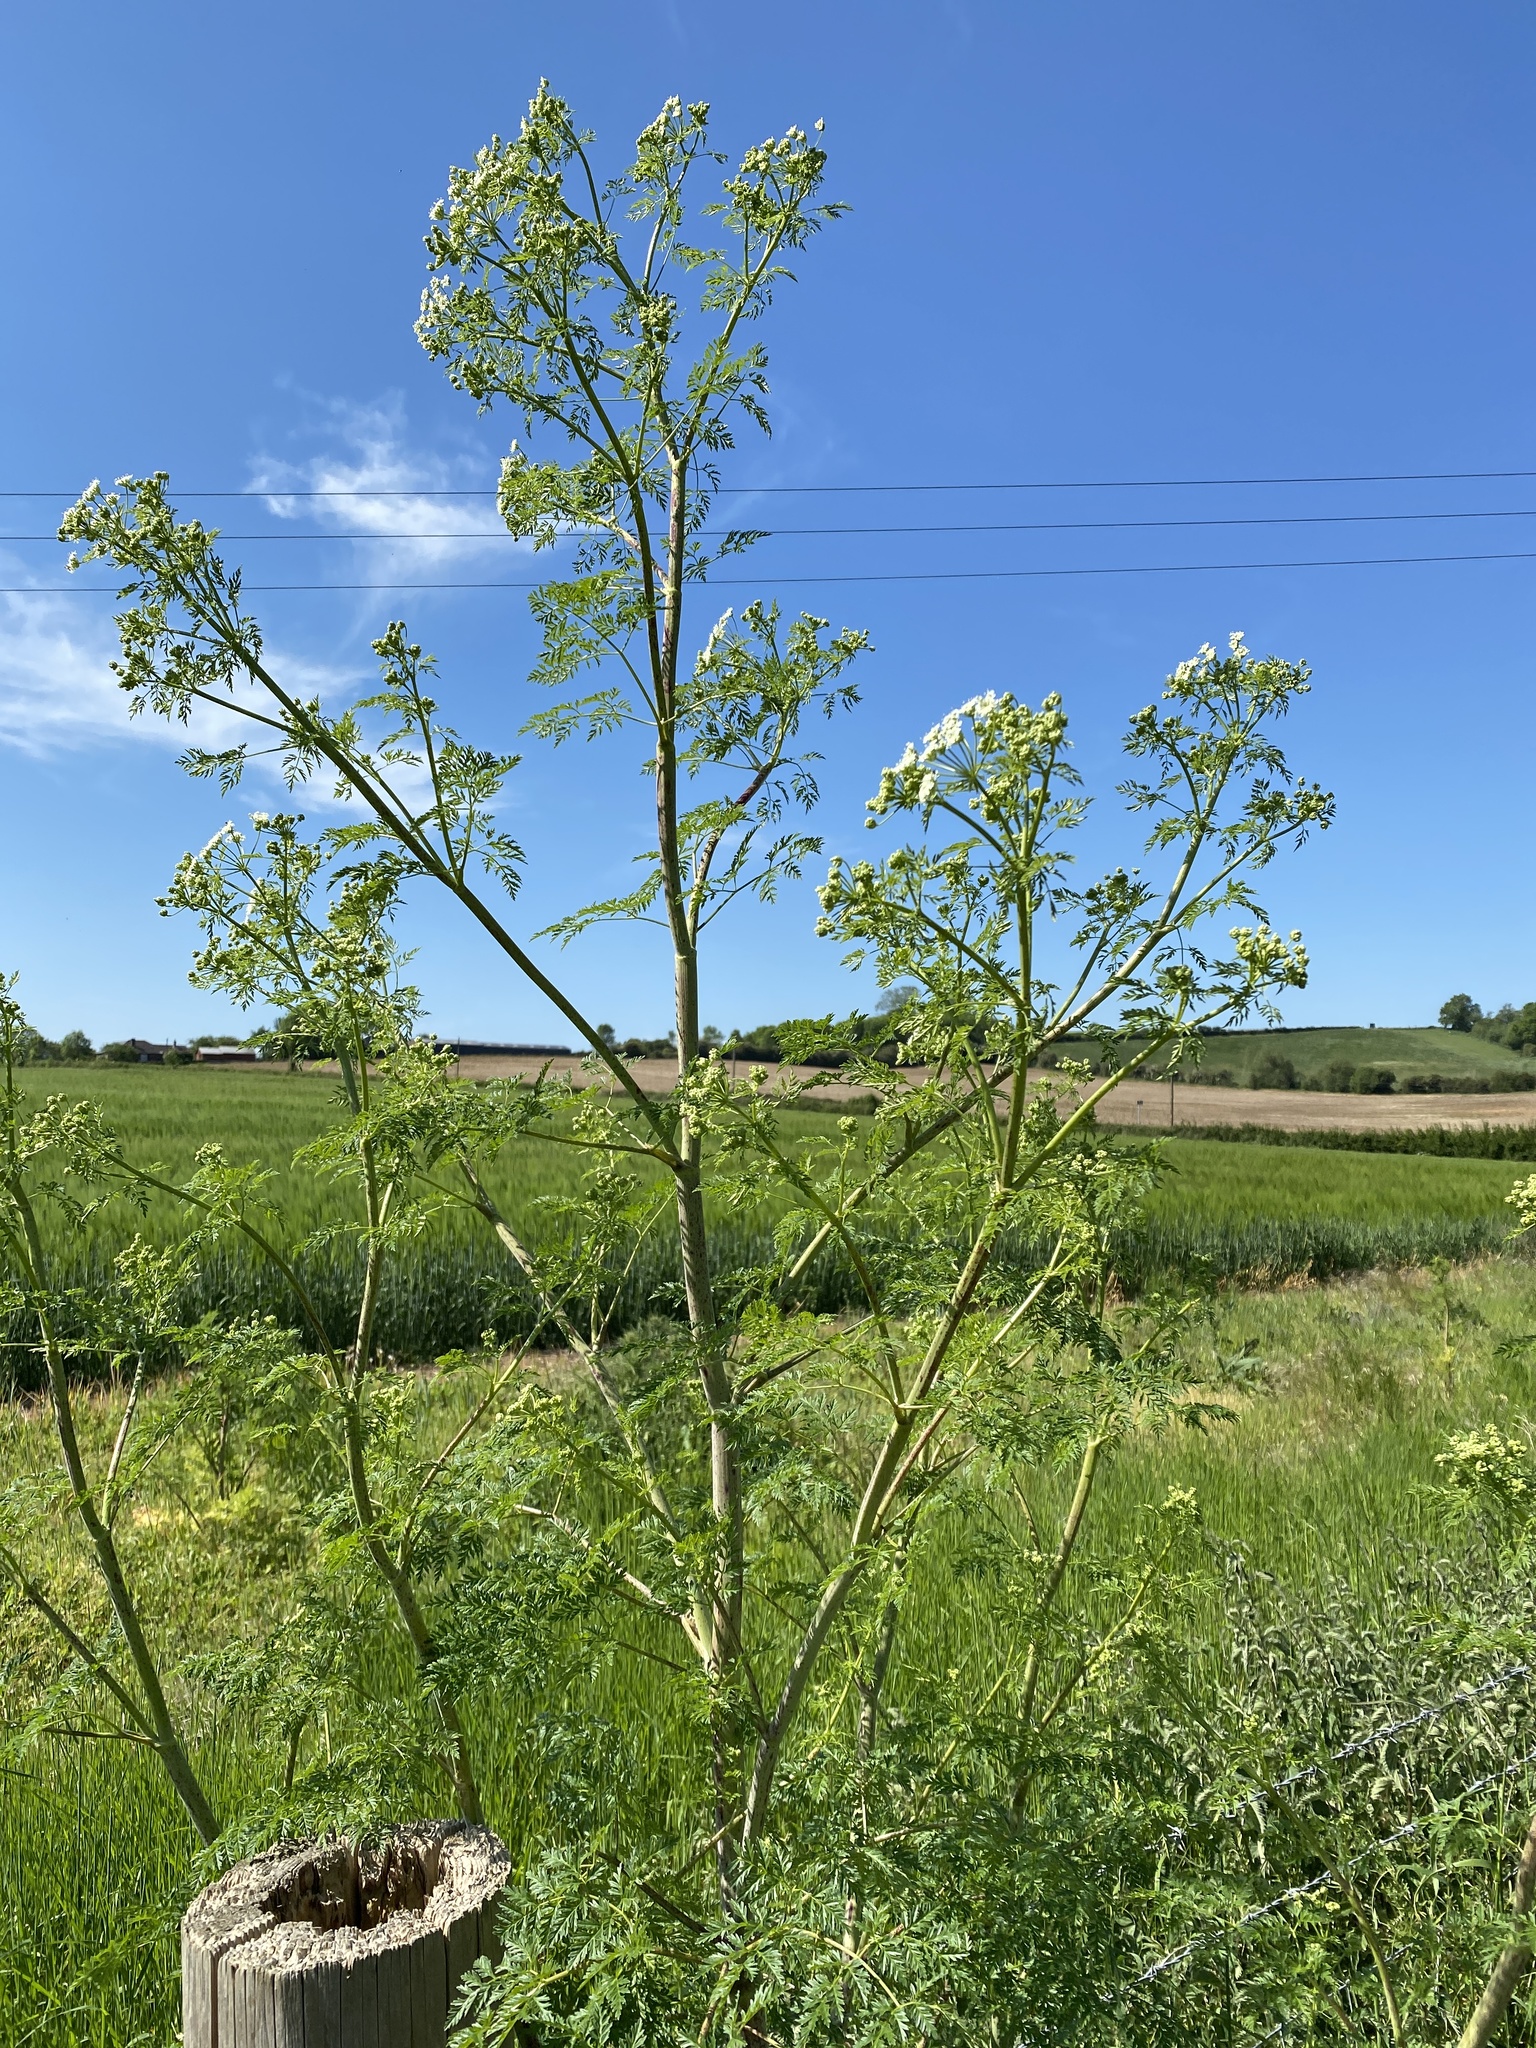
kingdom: Plantae
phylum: Tracheophyta
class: Magnoliopsida
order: Apiales
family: Apiaceae
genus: Conium
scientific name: Conium maculatum
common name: Hemlock
